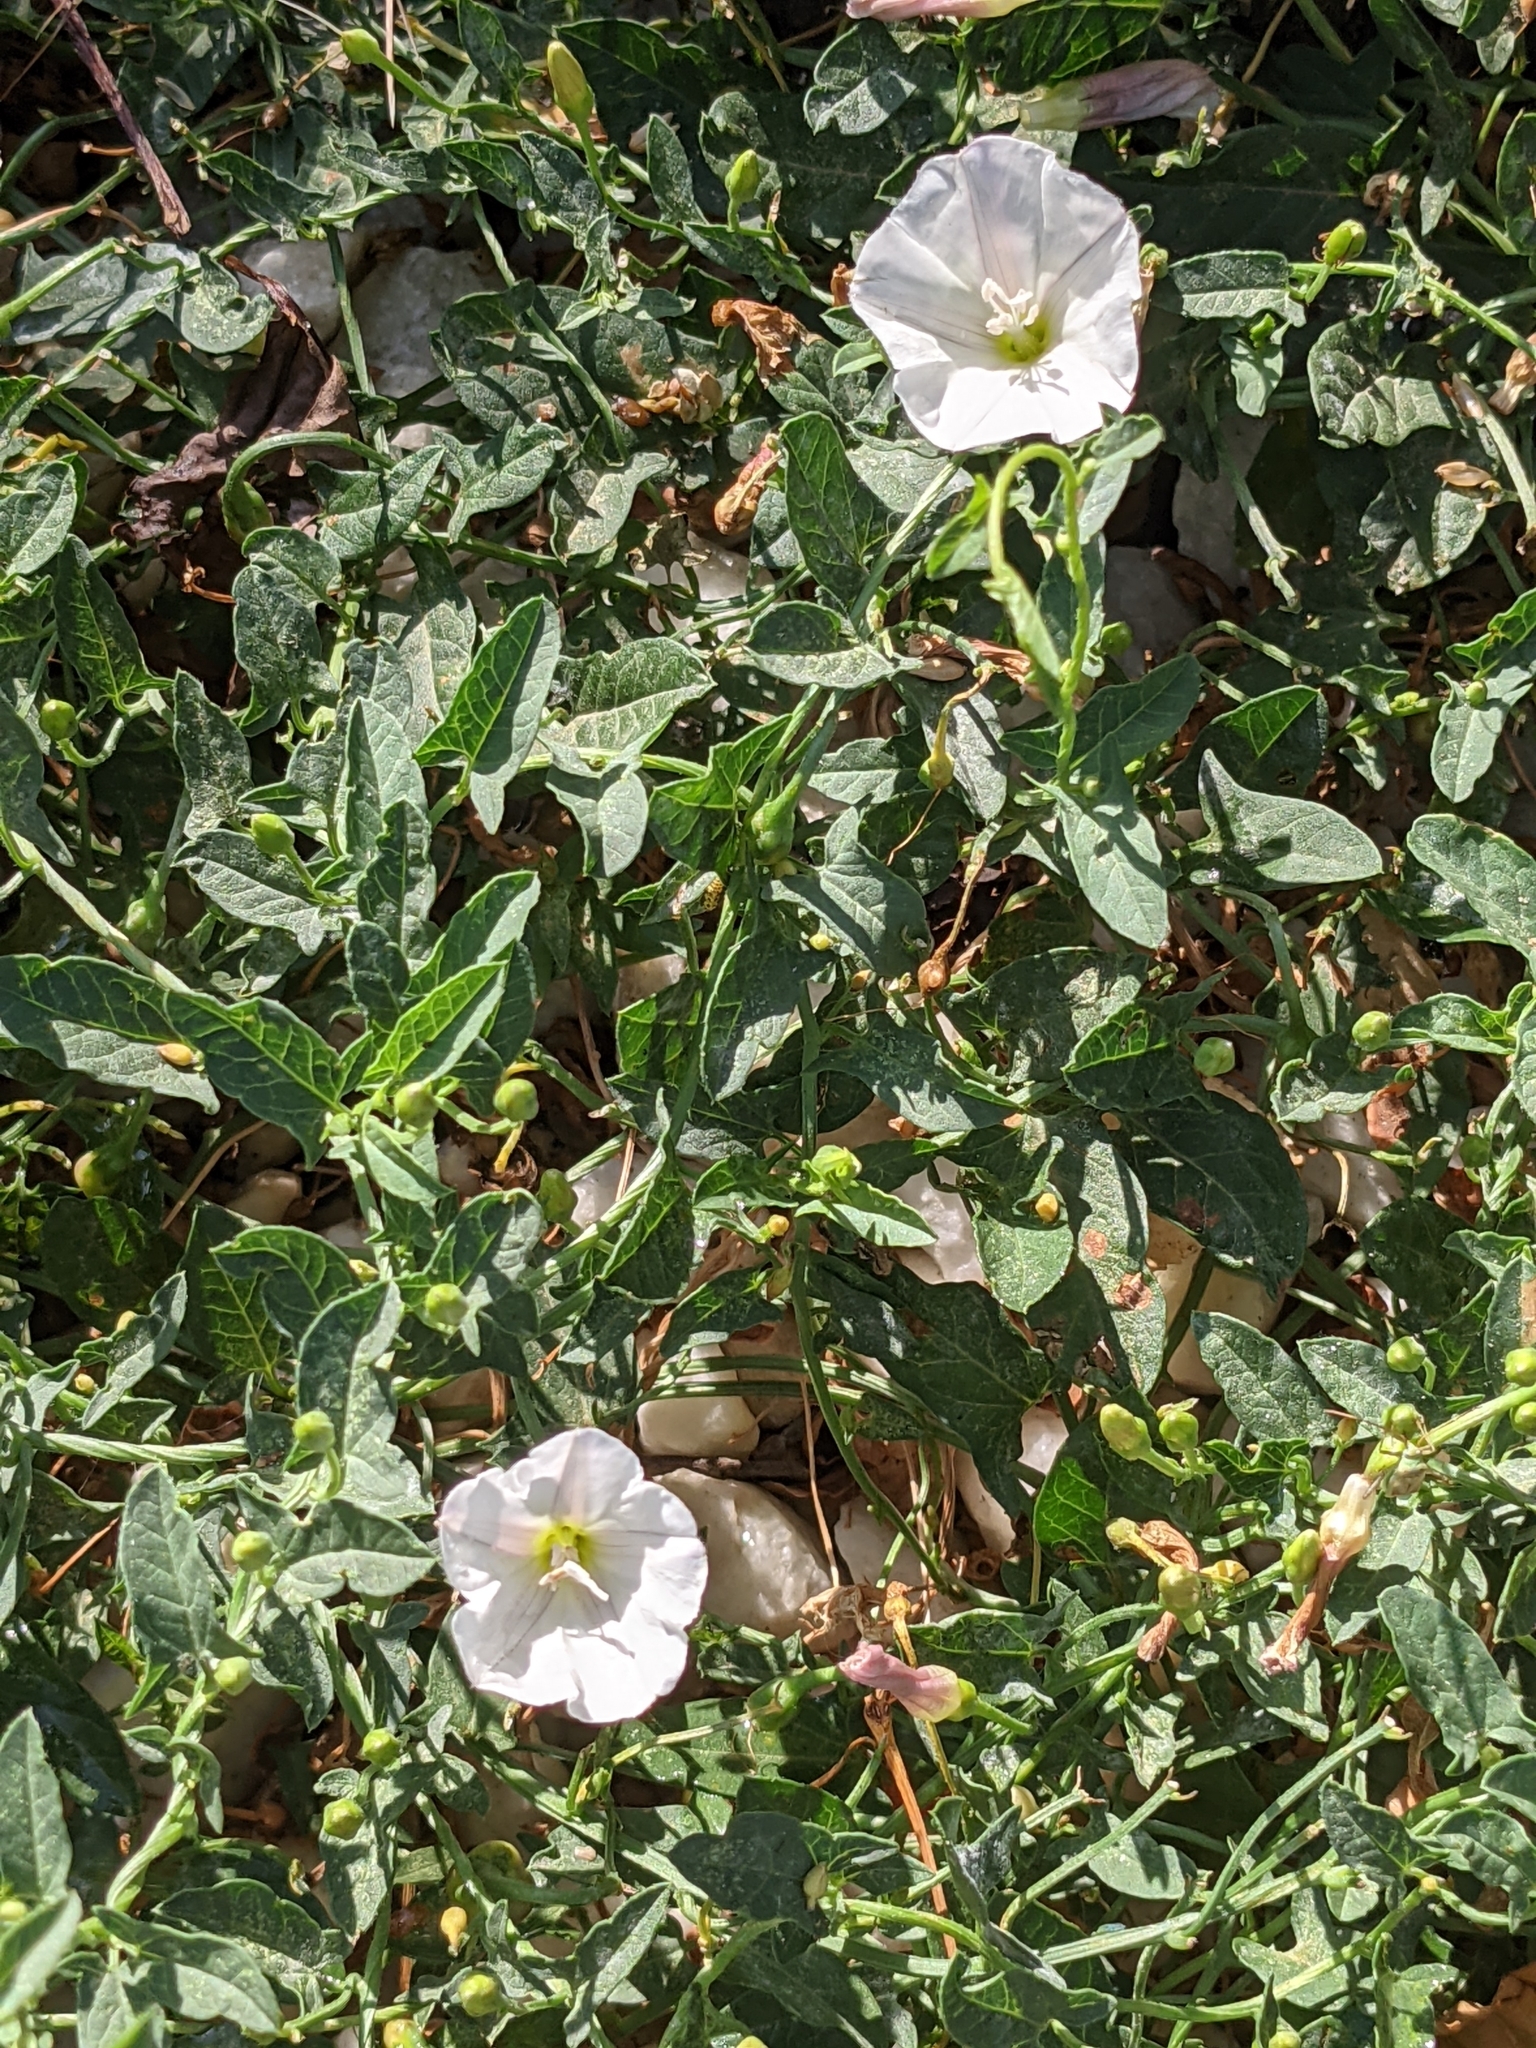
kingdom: Plantae
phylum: Tracheophyta
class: Magnoliopsida
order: Solanales
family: Convolvulaceae
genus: Convolvulus
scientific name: Convolvulus arvensis
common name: Field bindweed
